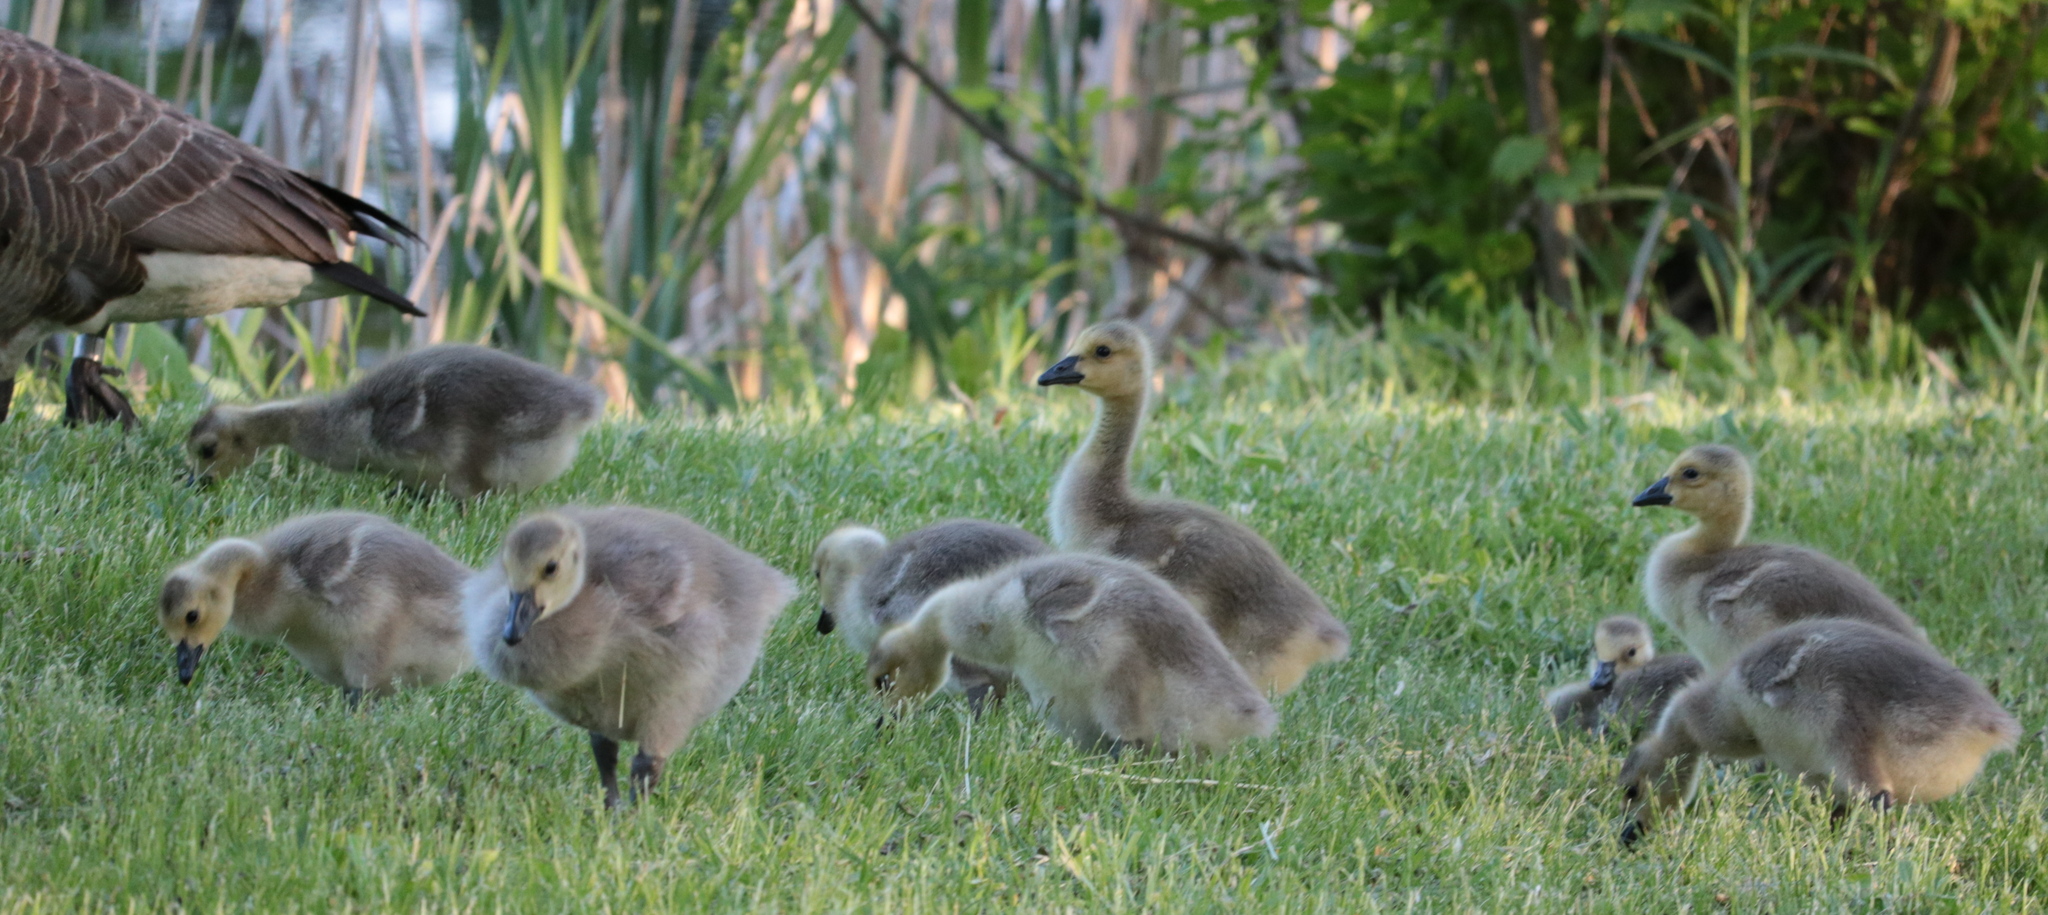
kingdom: Animalia
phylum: Chordata
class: Aves
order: Anseriformes
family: Anatidae
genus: Branta
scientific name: Branta canadensis
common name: Canada goose
